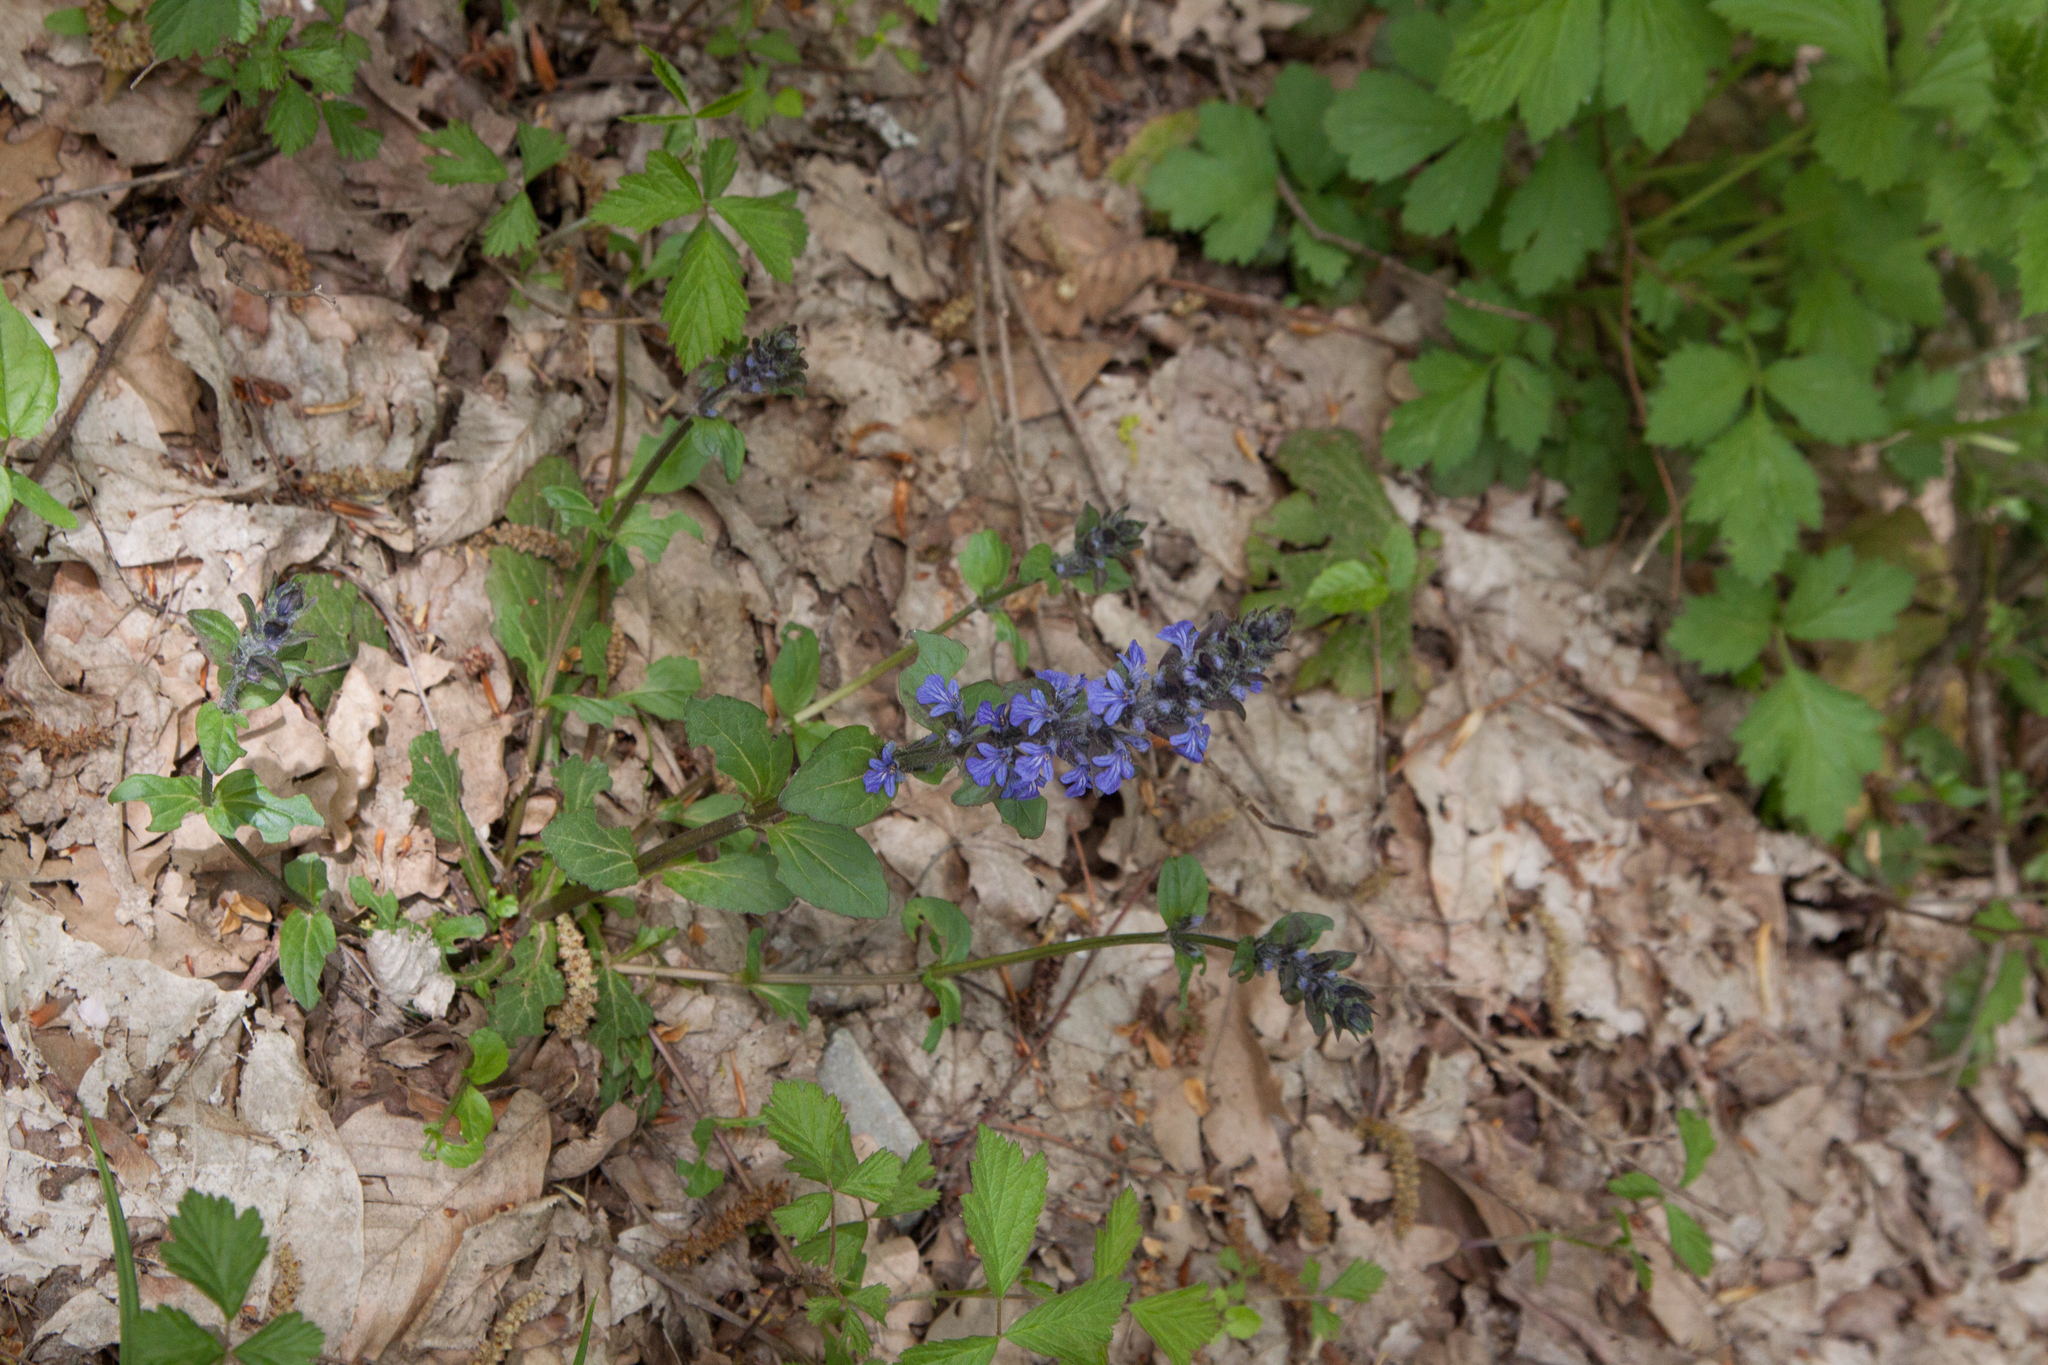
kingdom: Plantae
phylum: Tracheophyta
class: Magnoliopsida
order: Lamiales
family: Lamiaceae
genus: Ajuga
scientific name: Ajuga reptans
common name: Bugle
